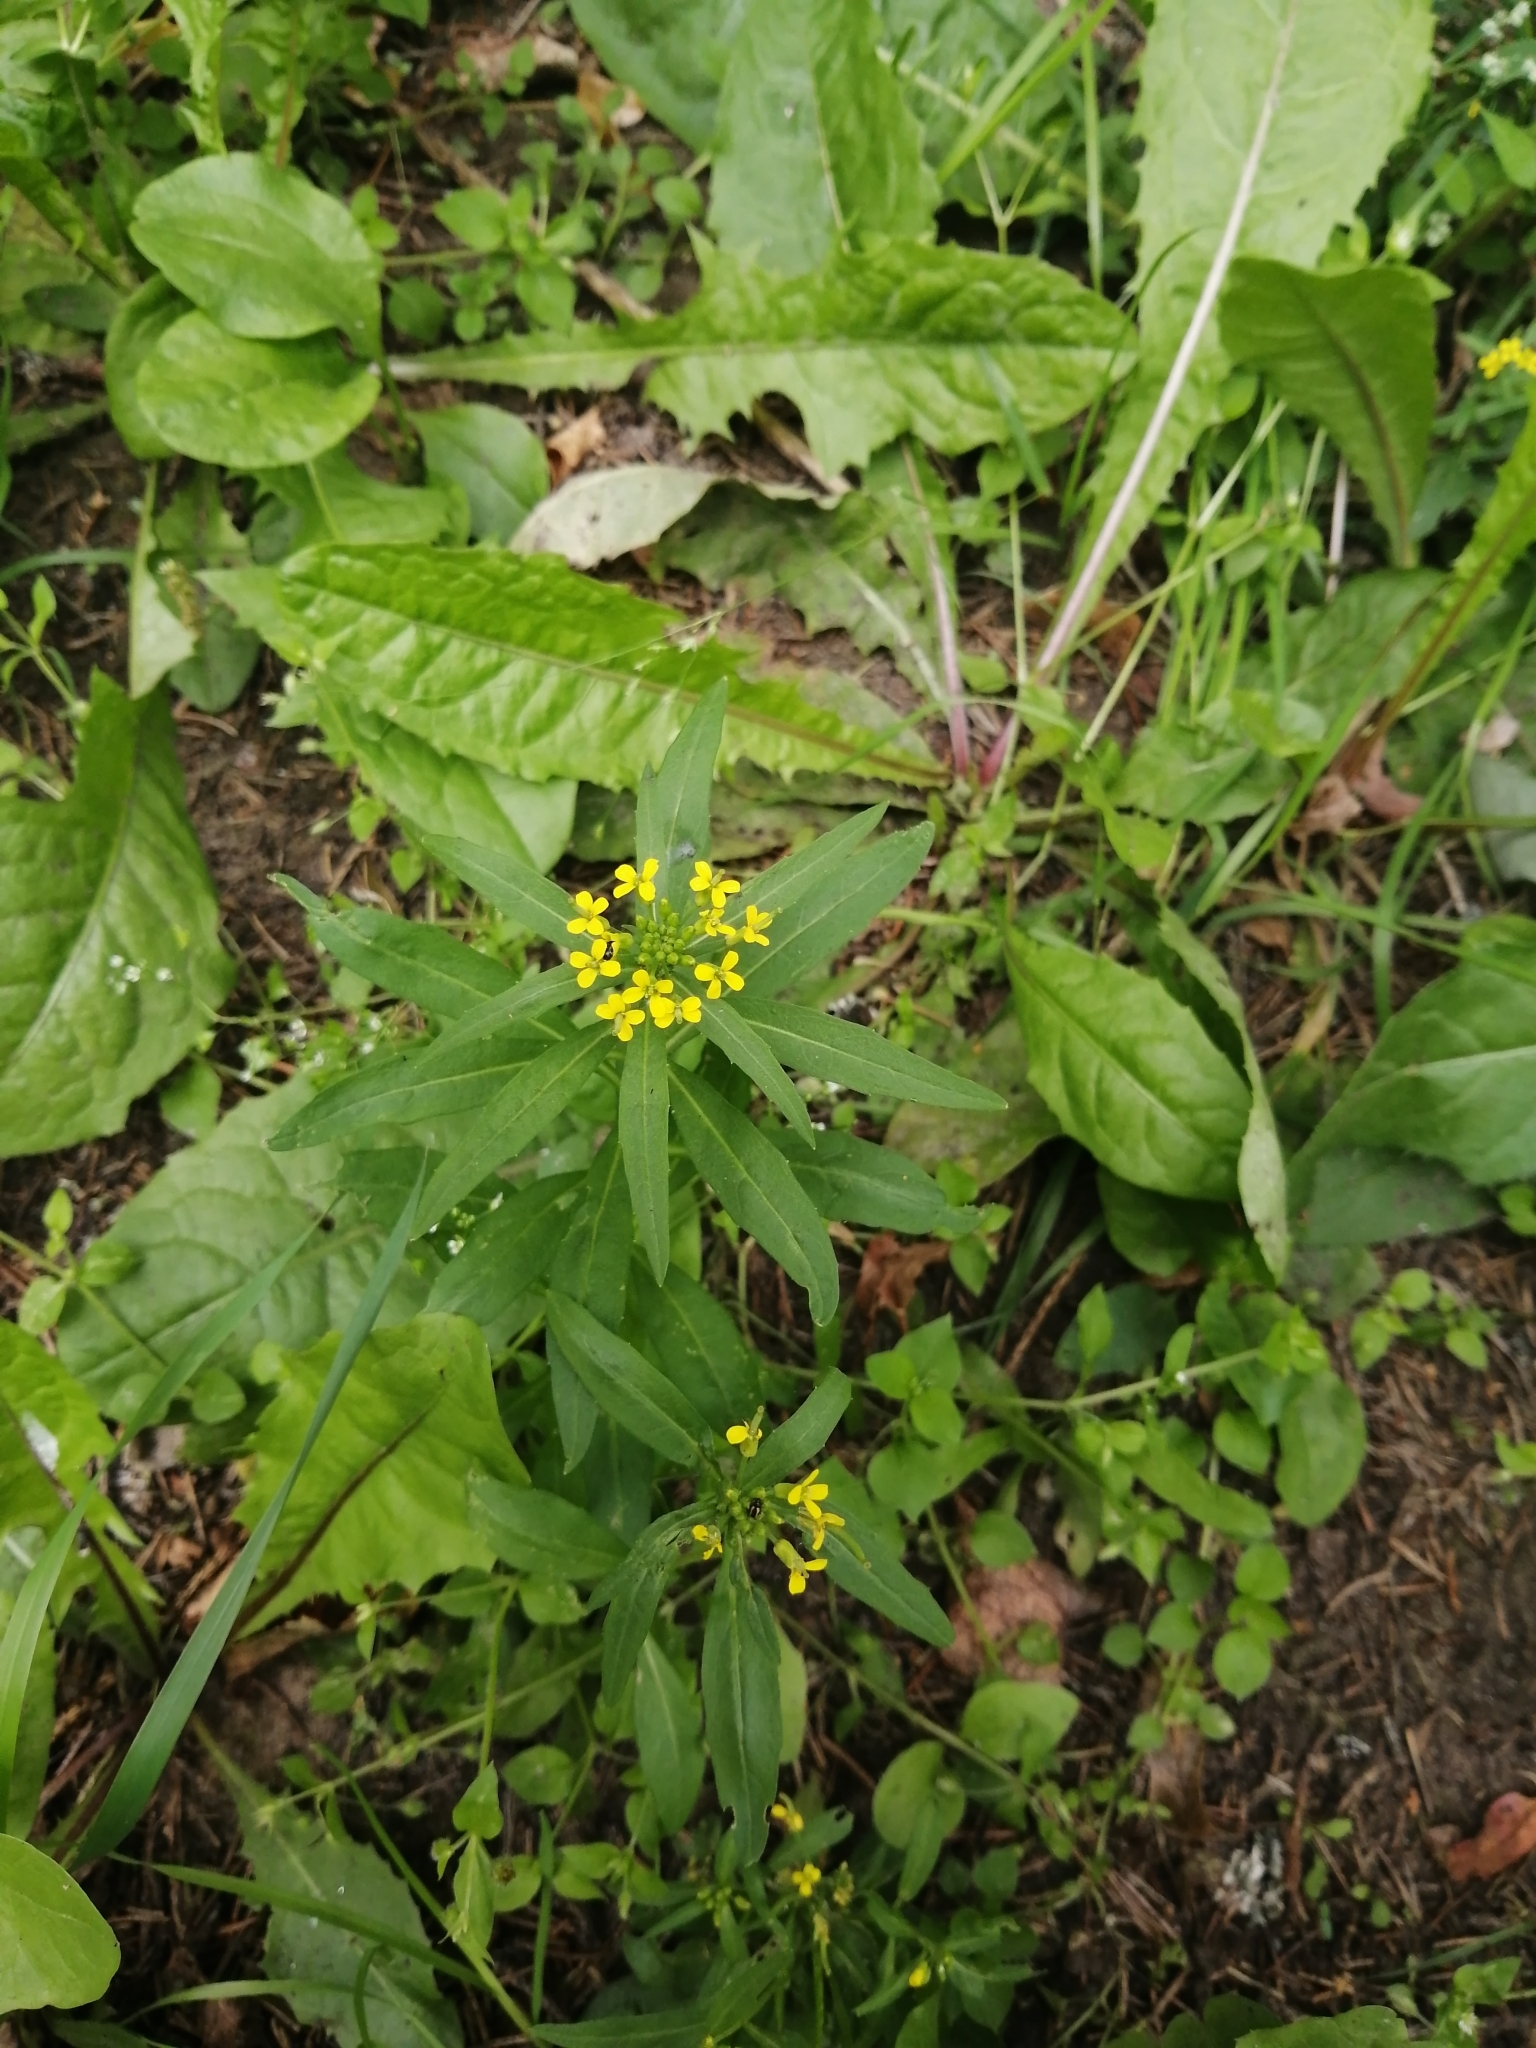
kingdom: Plantae
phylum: Tracheophyta
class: Magnoliopsida
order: Brassicales
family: Brassicaceae
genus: Erysimum
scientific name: Erysimum cheiranthoides
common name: Treacle mustard
